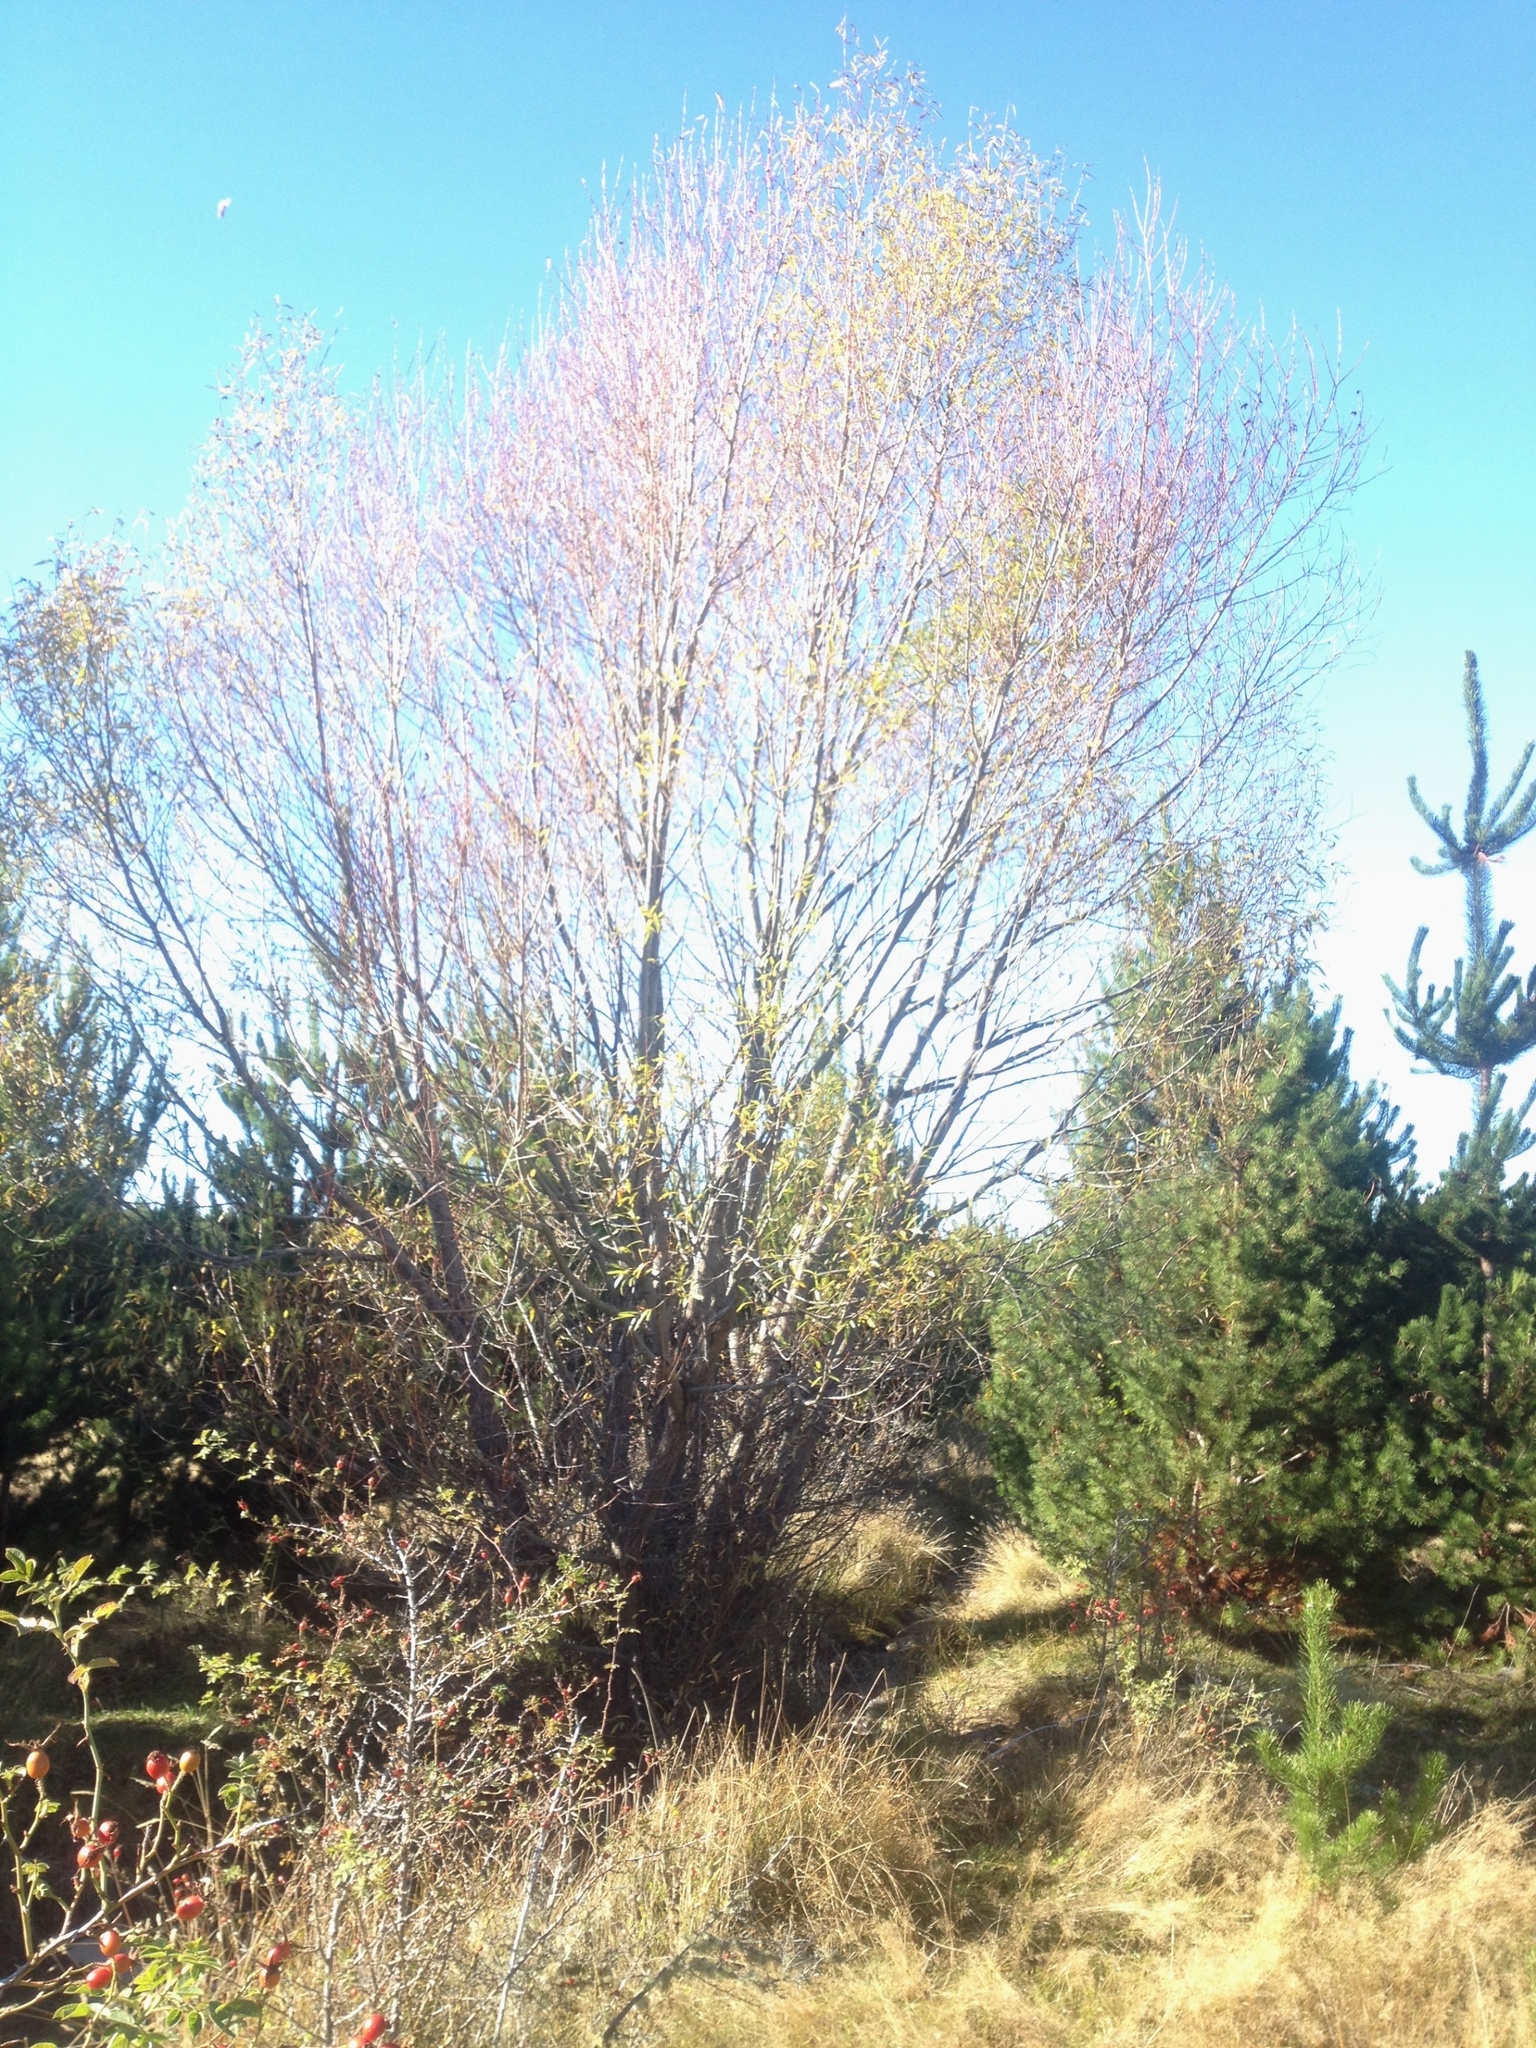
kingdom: Plantae
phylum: Tracheophyta
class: Magnoliopsida
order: Malpighiales
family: Salicaceae
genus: Salix
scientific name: Salix alba
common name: White willow
